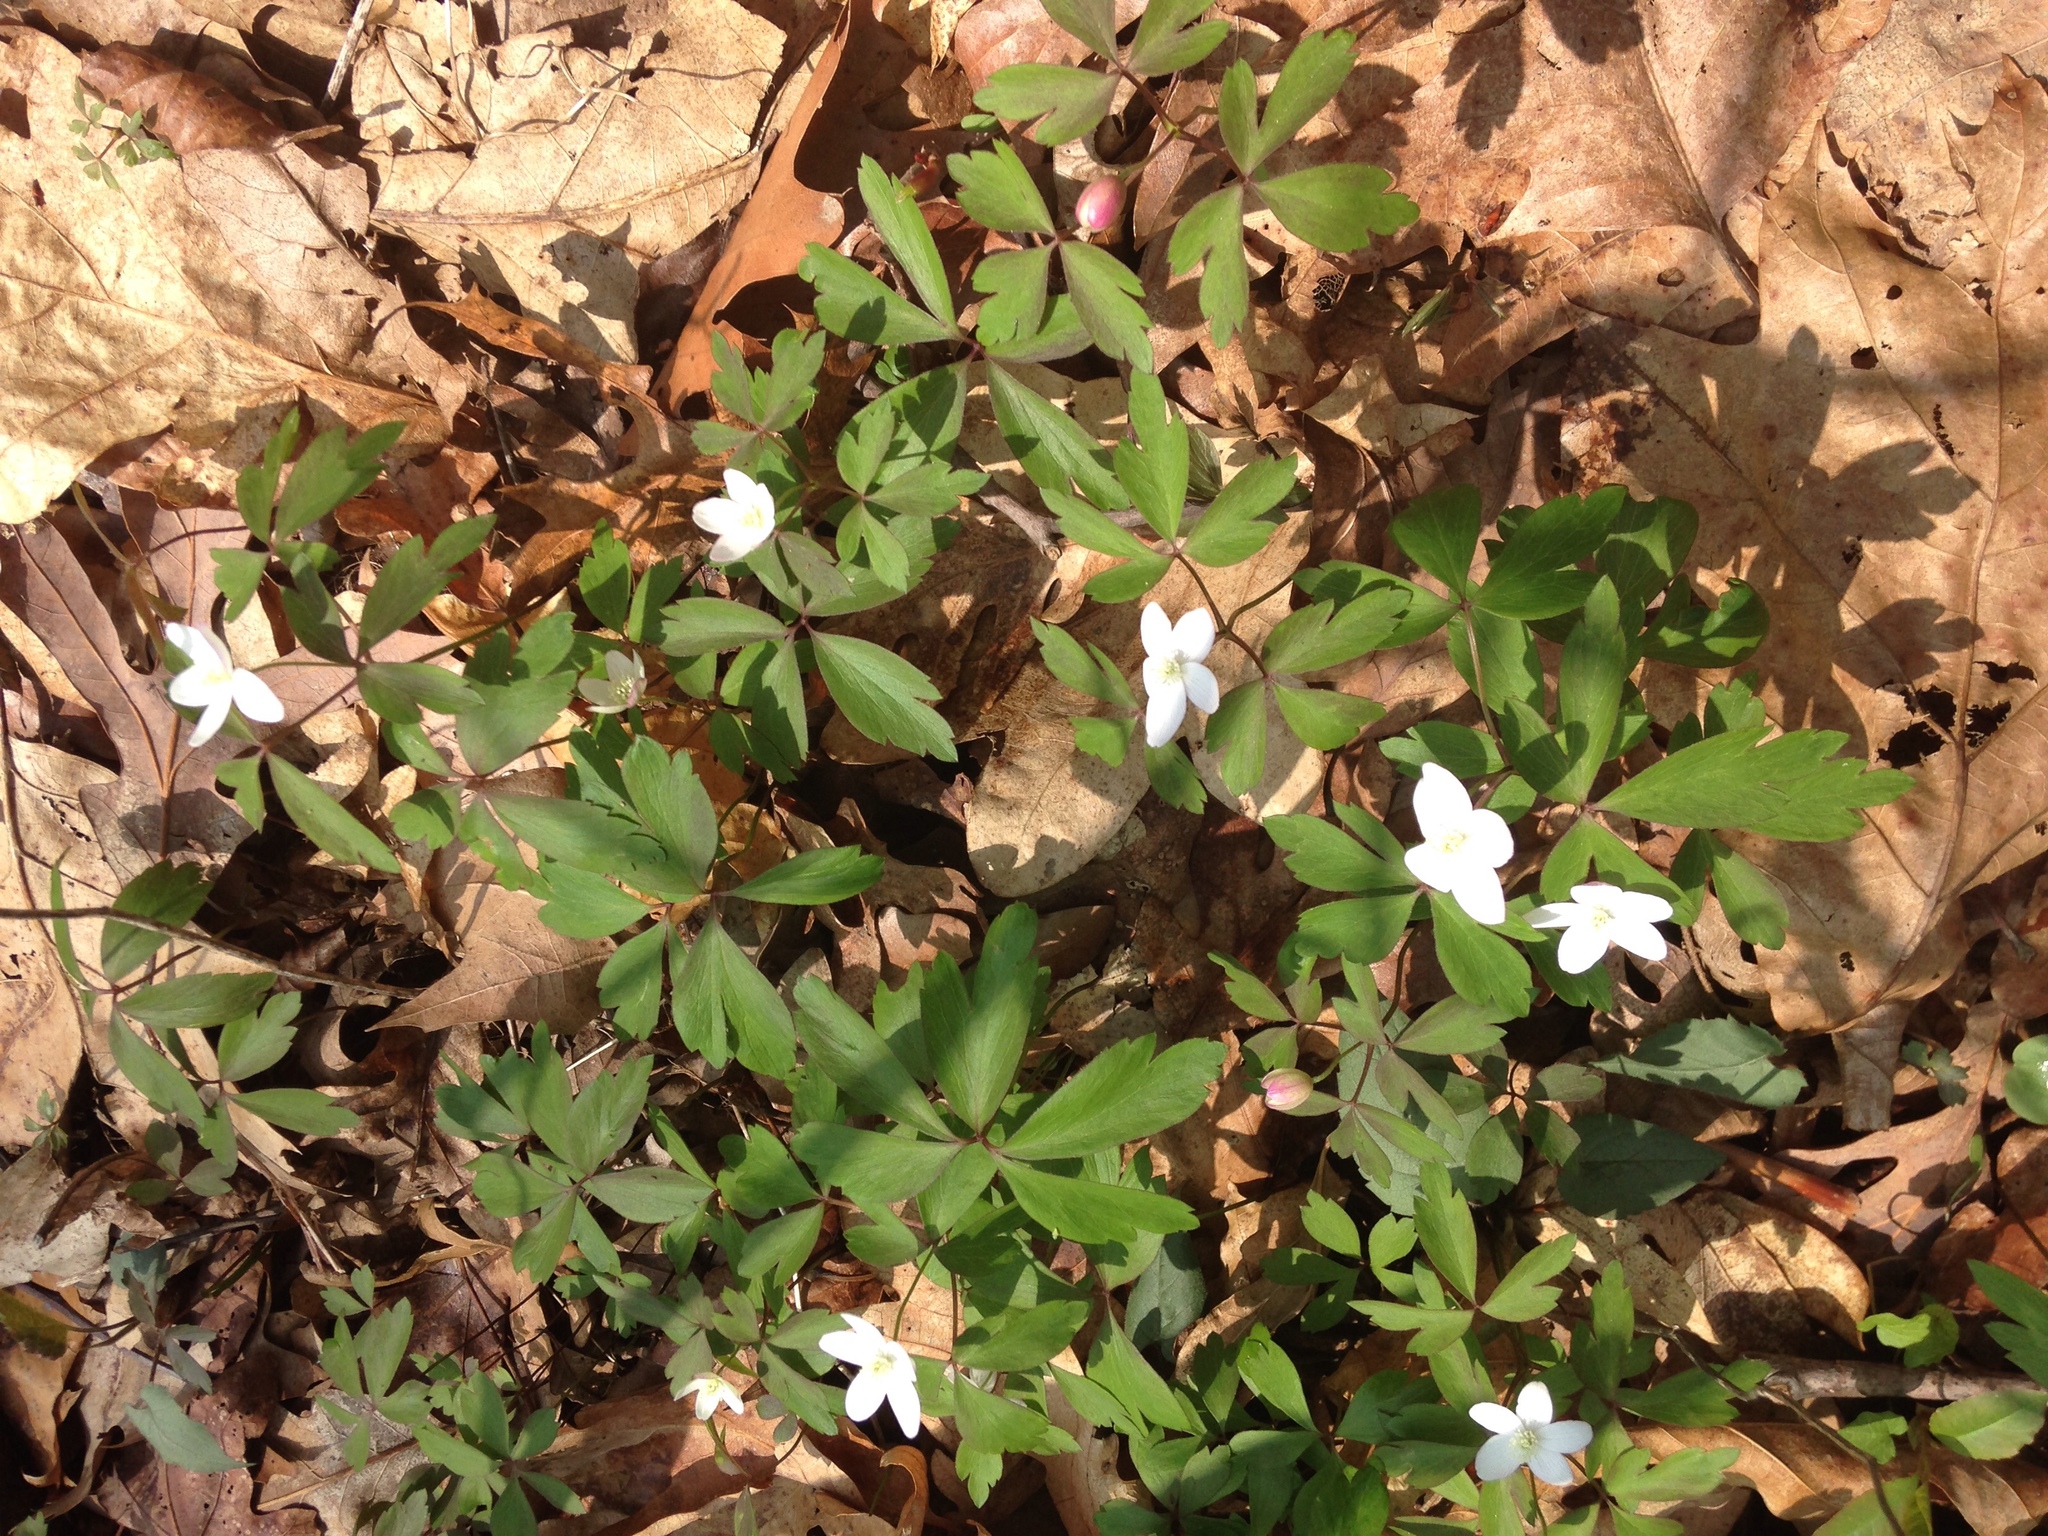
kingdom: Plantae
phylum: Tracheophyta
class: Magnoliopsida
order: Ranunculales
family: Ranunculaceae
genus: Anemone
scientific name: Anemone quinquefolia
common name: Wood anemone
